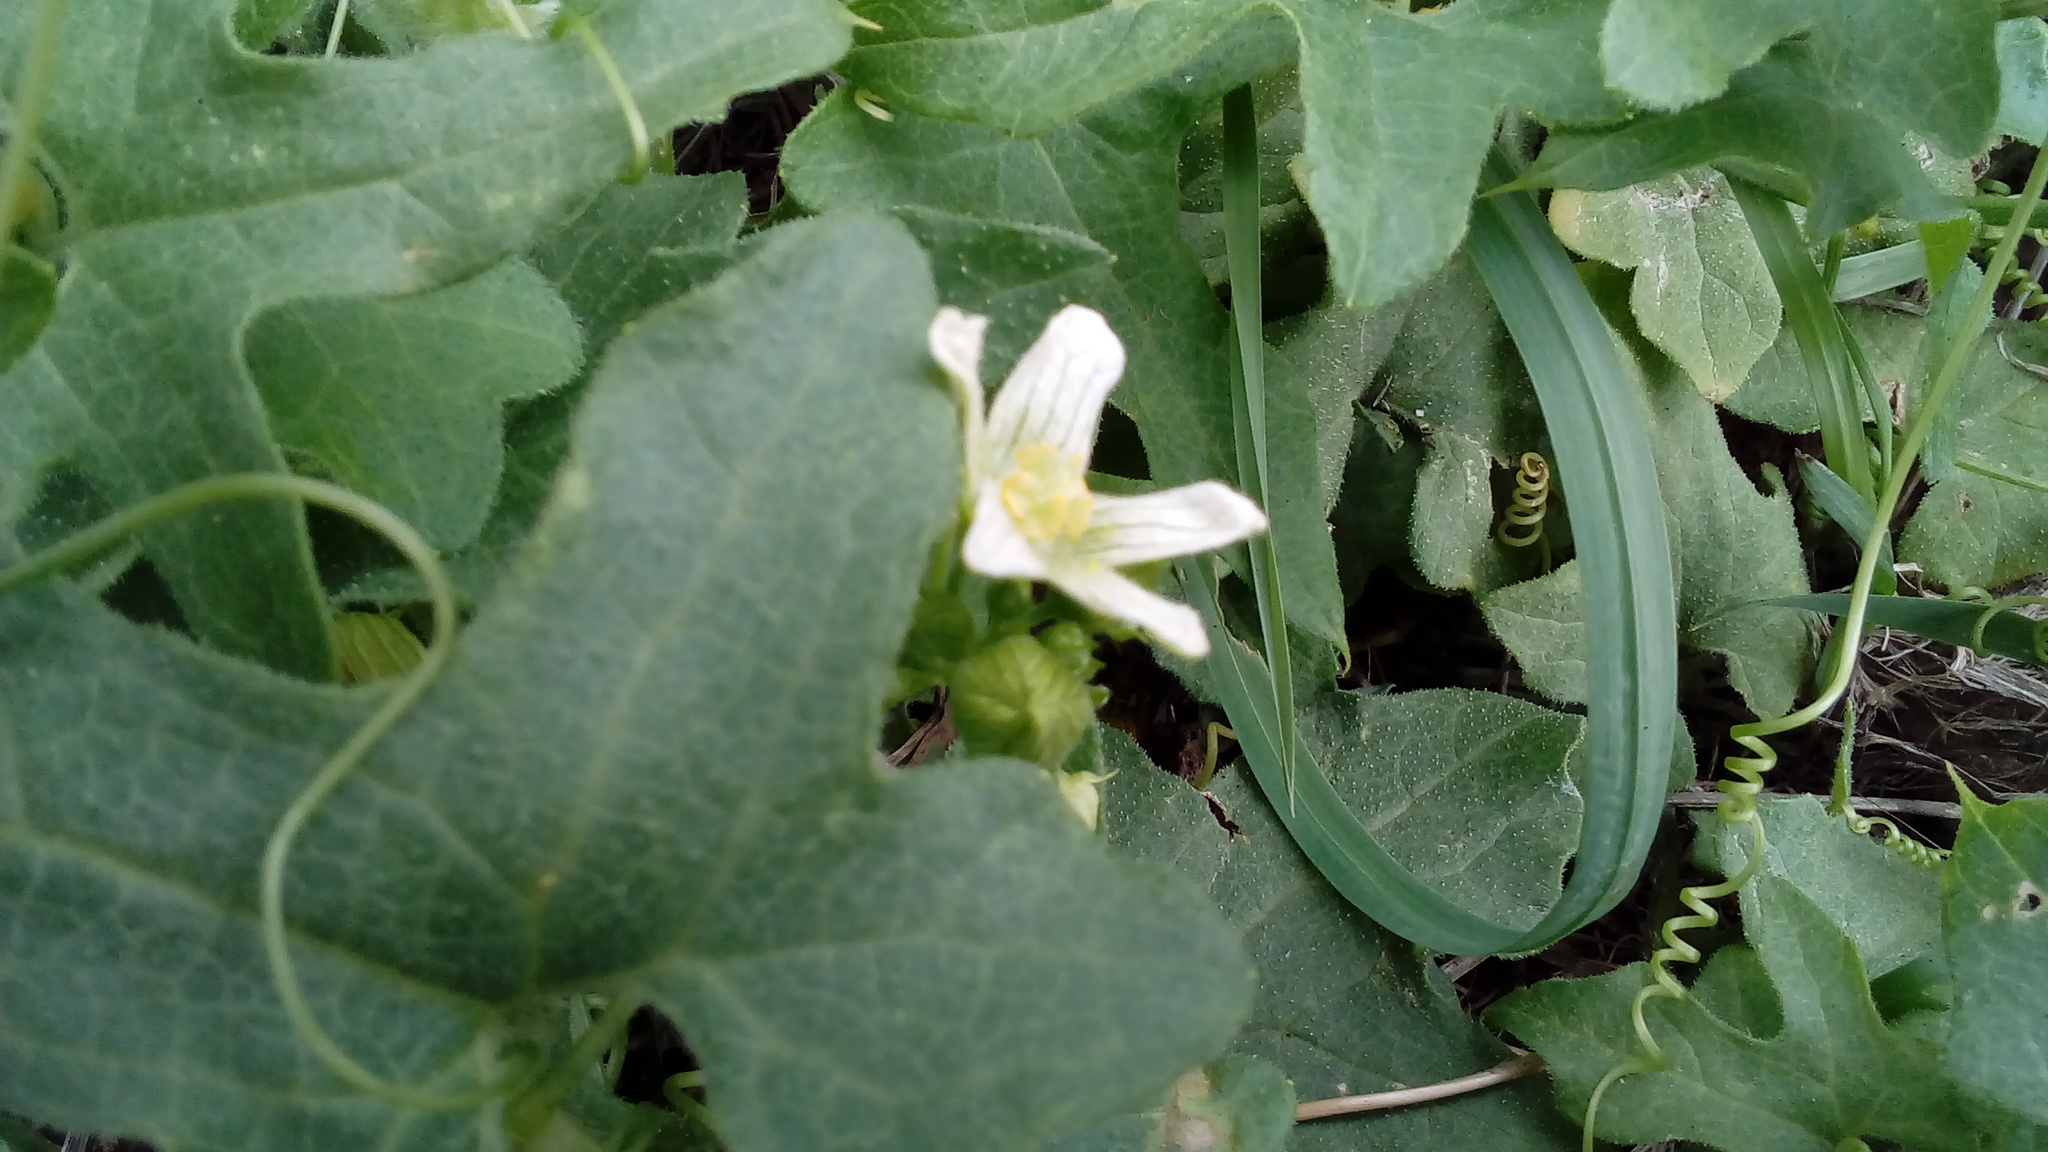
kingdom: Plantae
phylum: Tracheophyta
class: Magnoliopsida
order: Cucurbitales
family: Cucurbitaceae
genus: Bryonia
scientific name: Bryonia dioica
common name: White bryony
